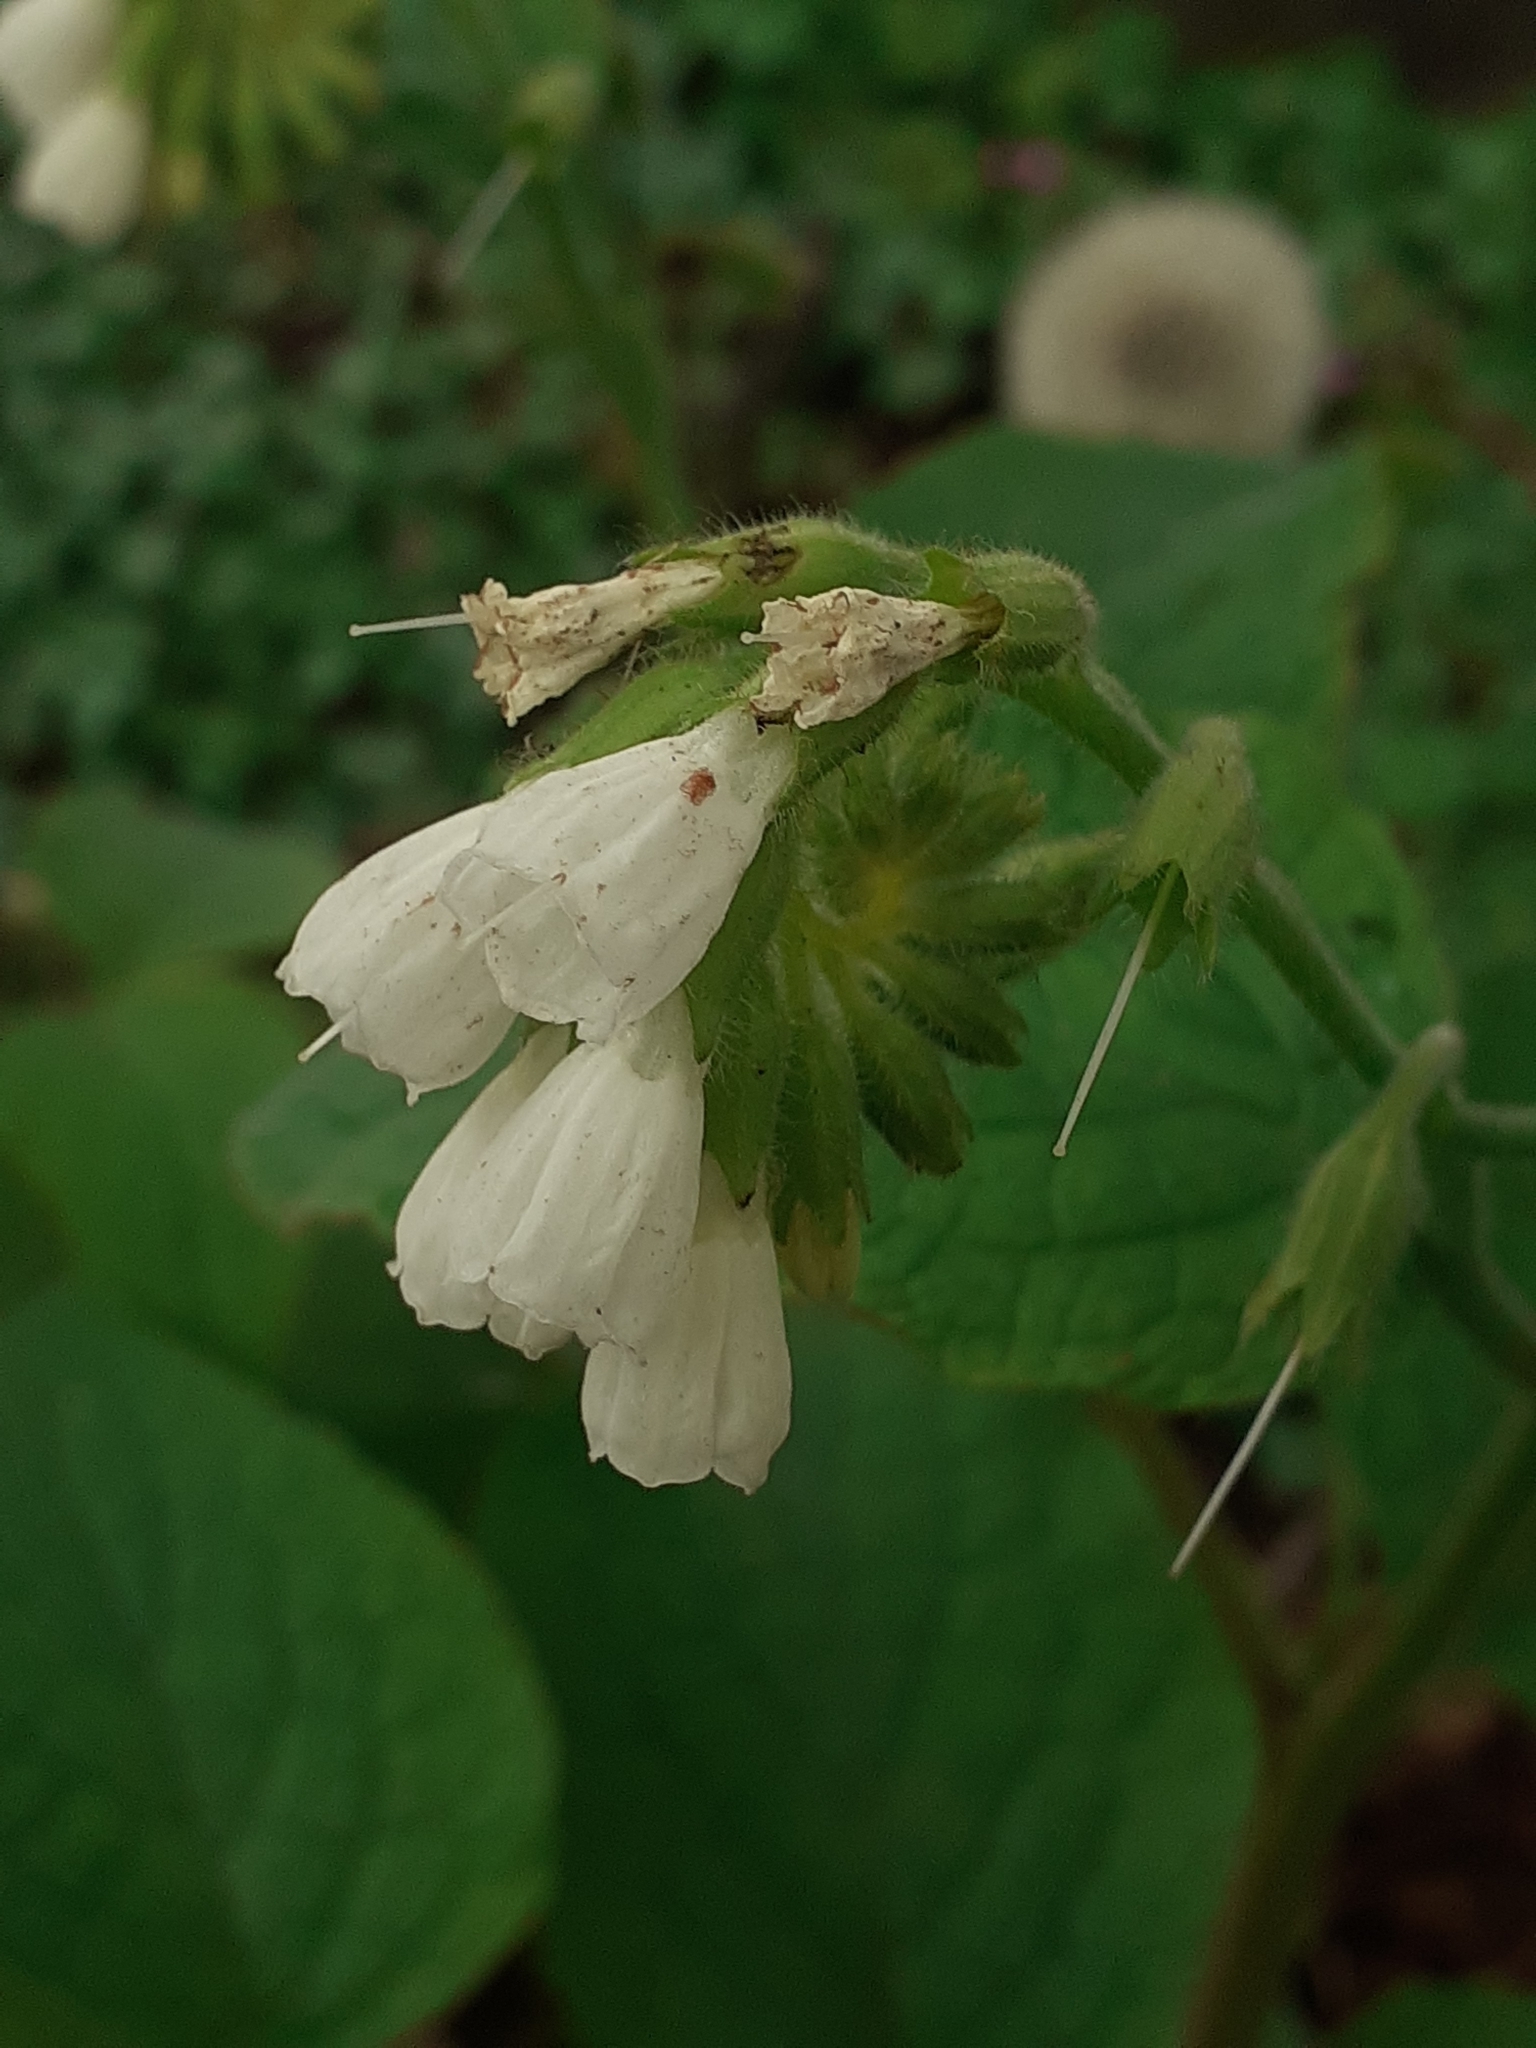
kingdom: Plantae
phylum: Tracheophyta
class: Magnoliopsida
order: Boraginales
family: Boraginaceae
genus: Symphytum
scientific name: Symphytum orientale
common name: White comfrey
